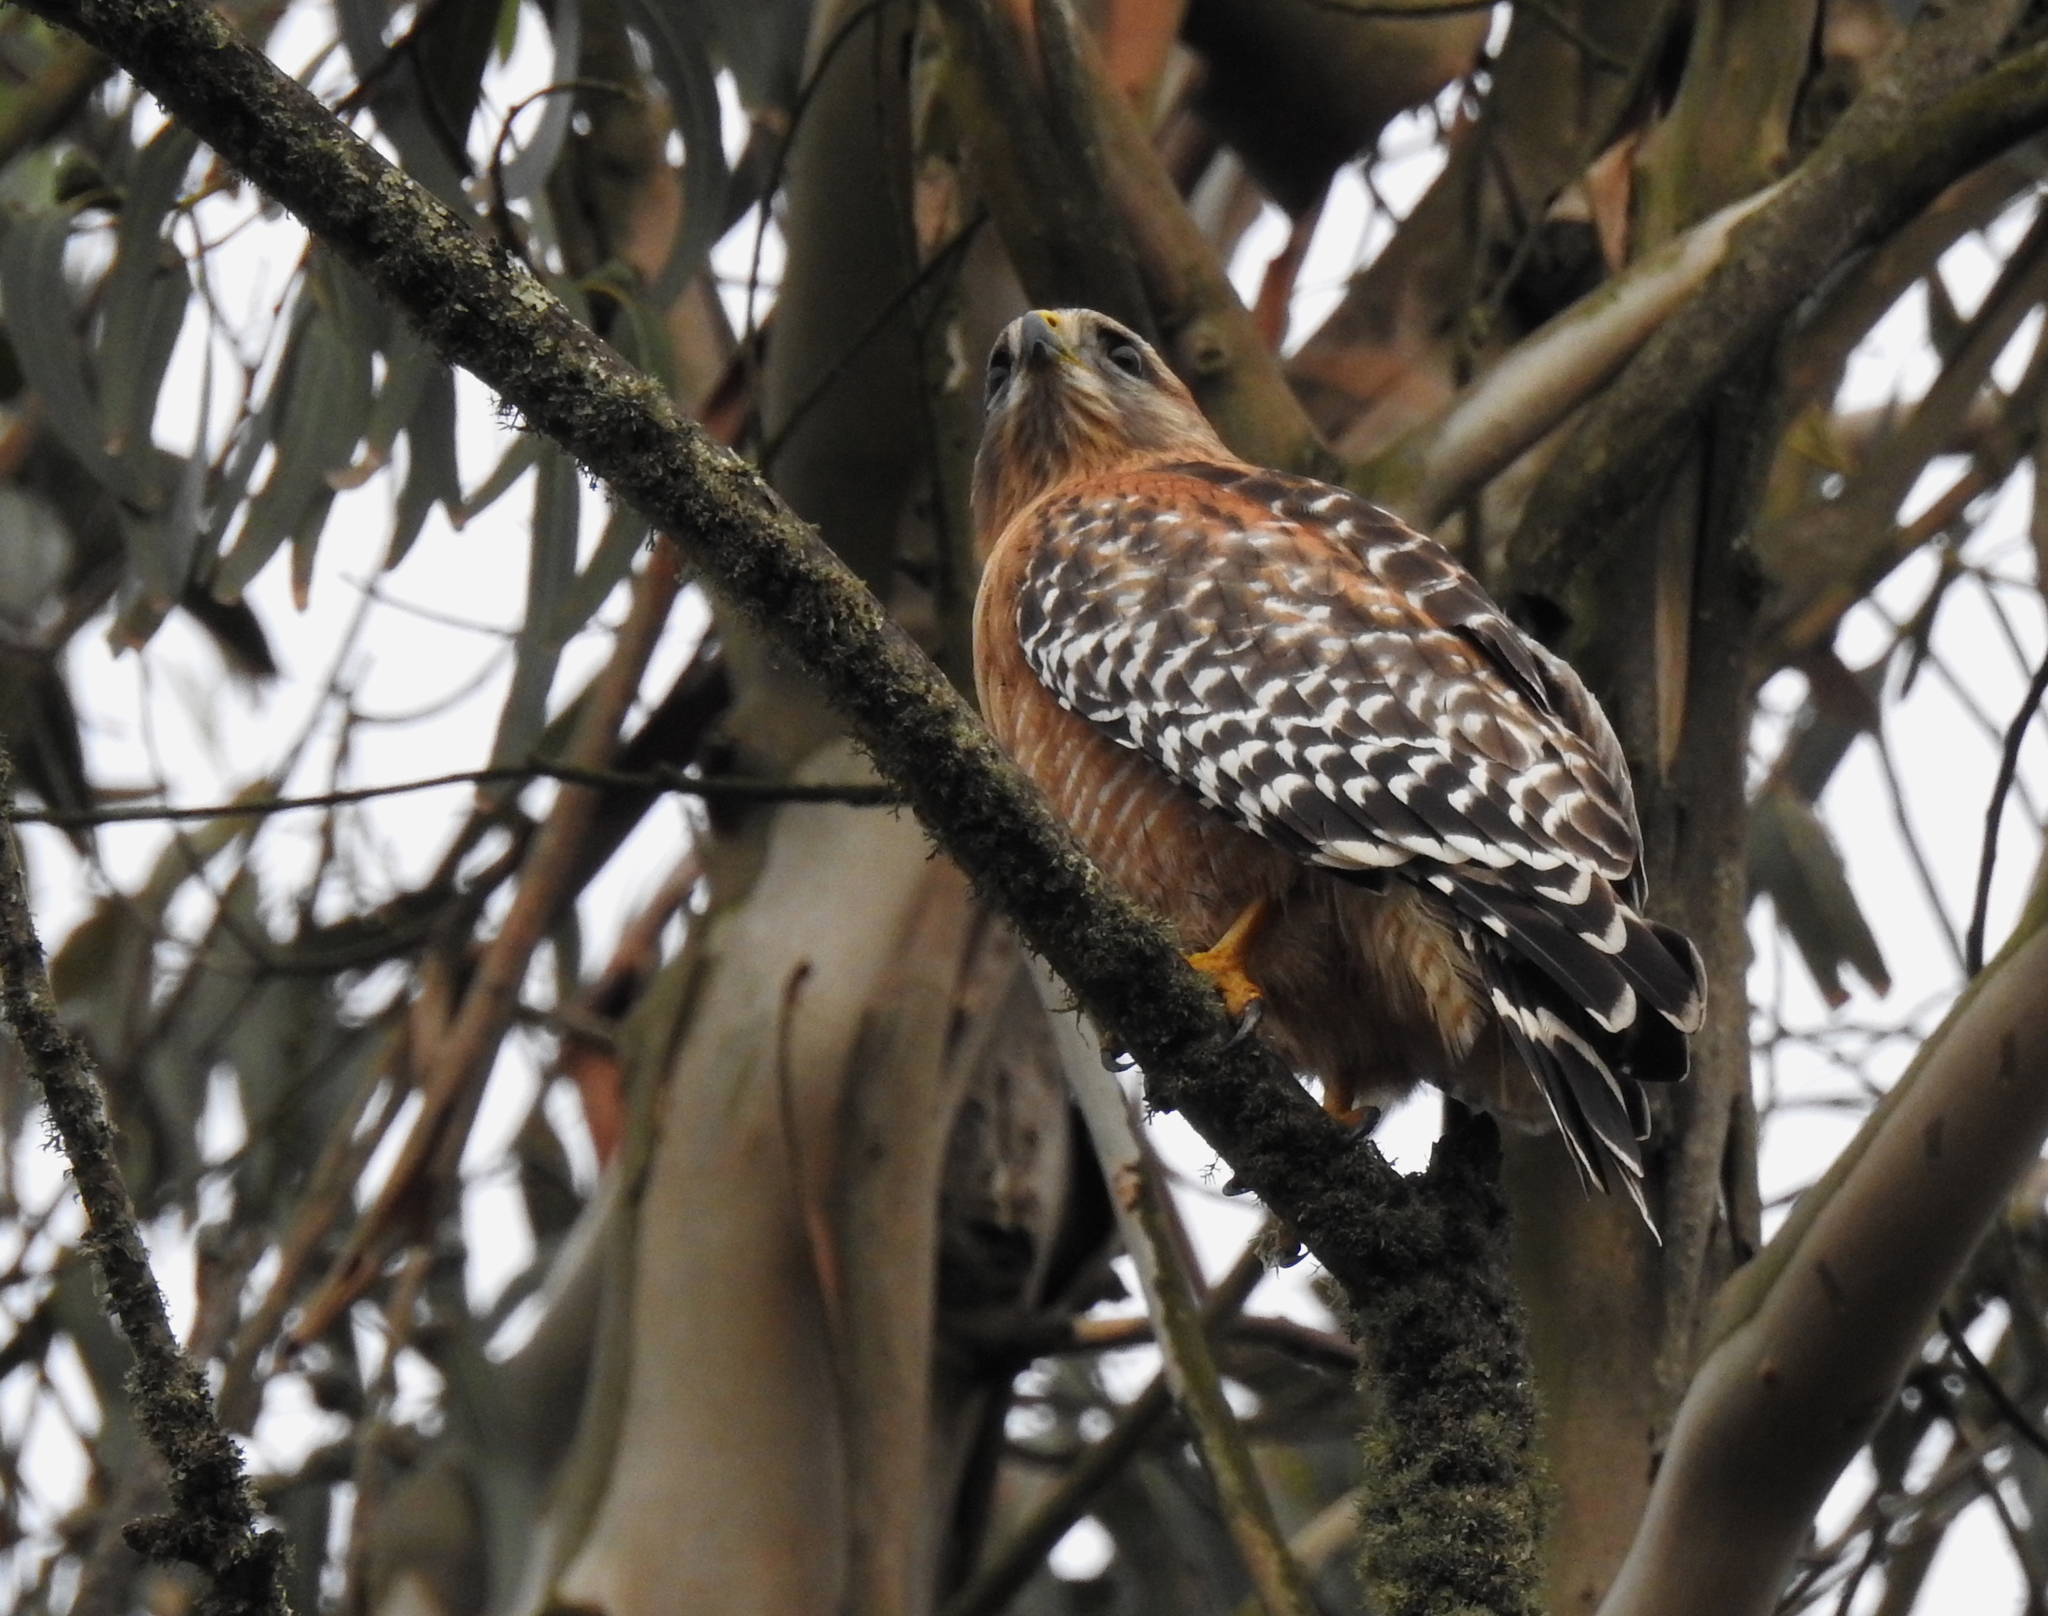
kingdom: Animalia
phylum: Chordata
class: Aves
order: Accipitriformes
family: Accipitridae
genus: Buteo
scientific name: Buteo lineatus
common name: Red-shouldered hawk
